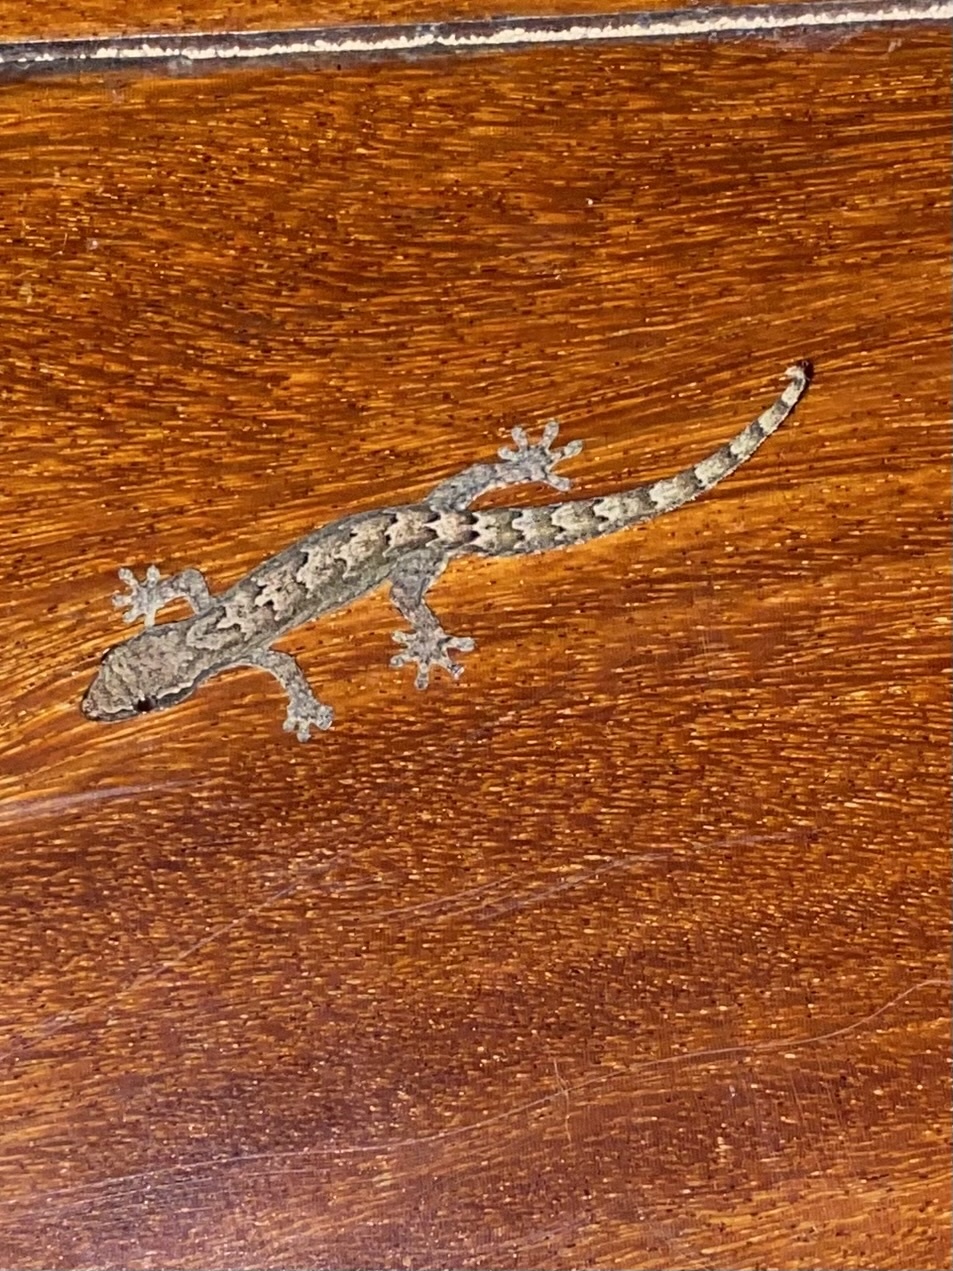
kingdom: Animalia
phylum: Chordata
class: Squamata
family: Gekkonidae
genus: Lepidodactylus
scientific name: Lepidodactylus lugubris
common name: Mourning gecko
